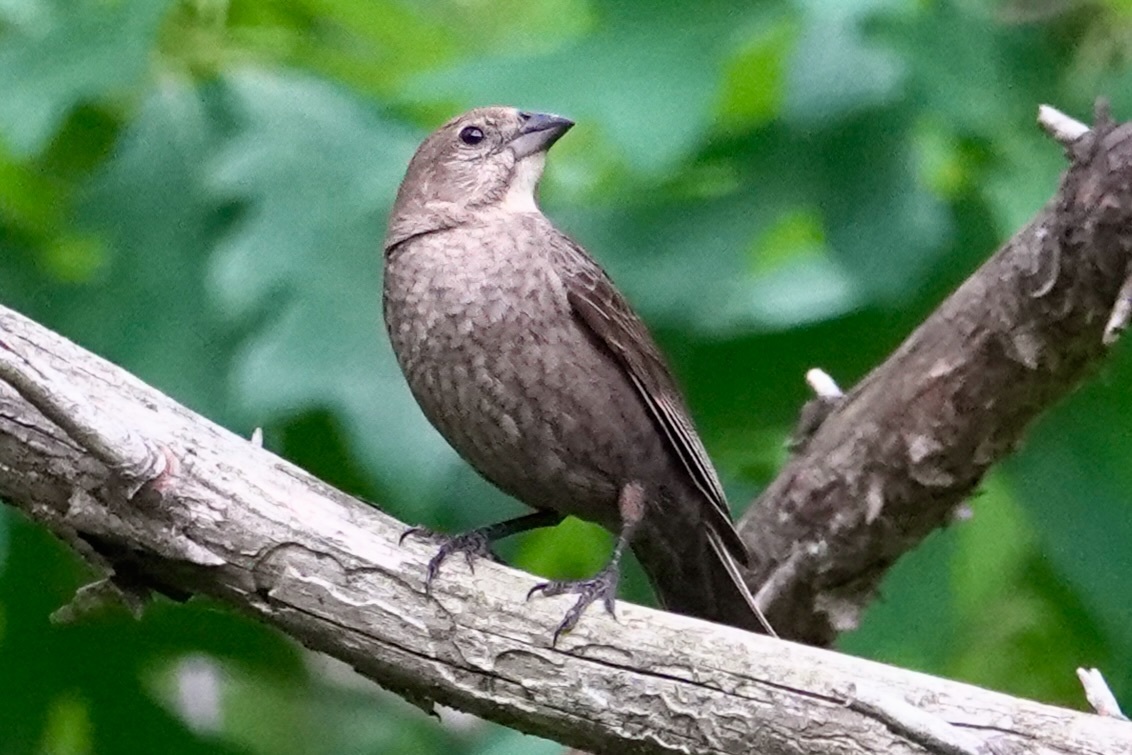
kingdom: Animalia
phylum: Chordata
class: Aves
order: Passeriformes
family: Icteridae
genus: Molothrus
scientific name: Molothrus ater
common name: Brown-headed cowbird
